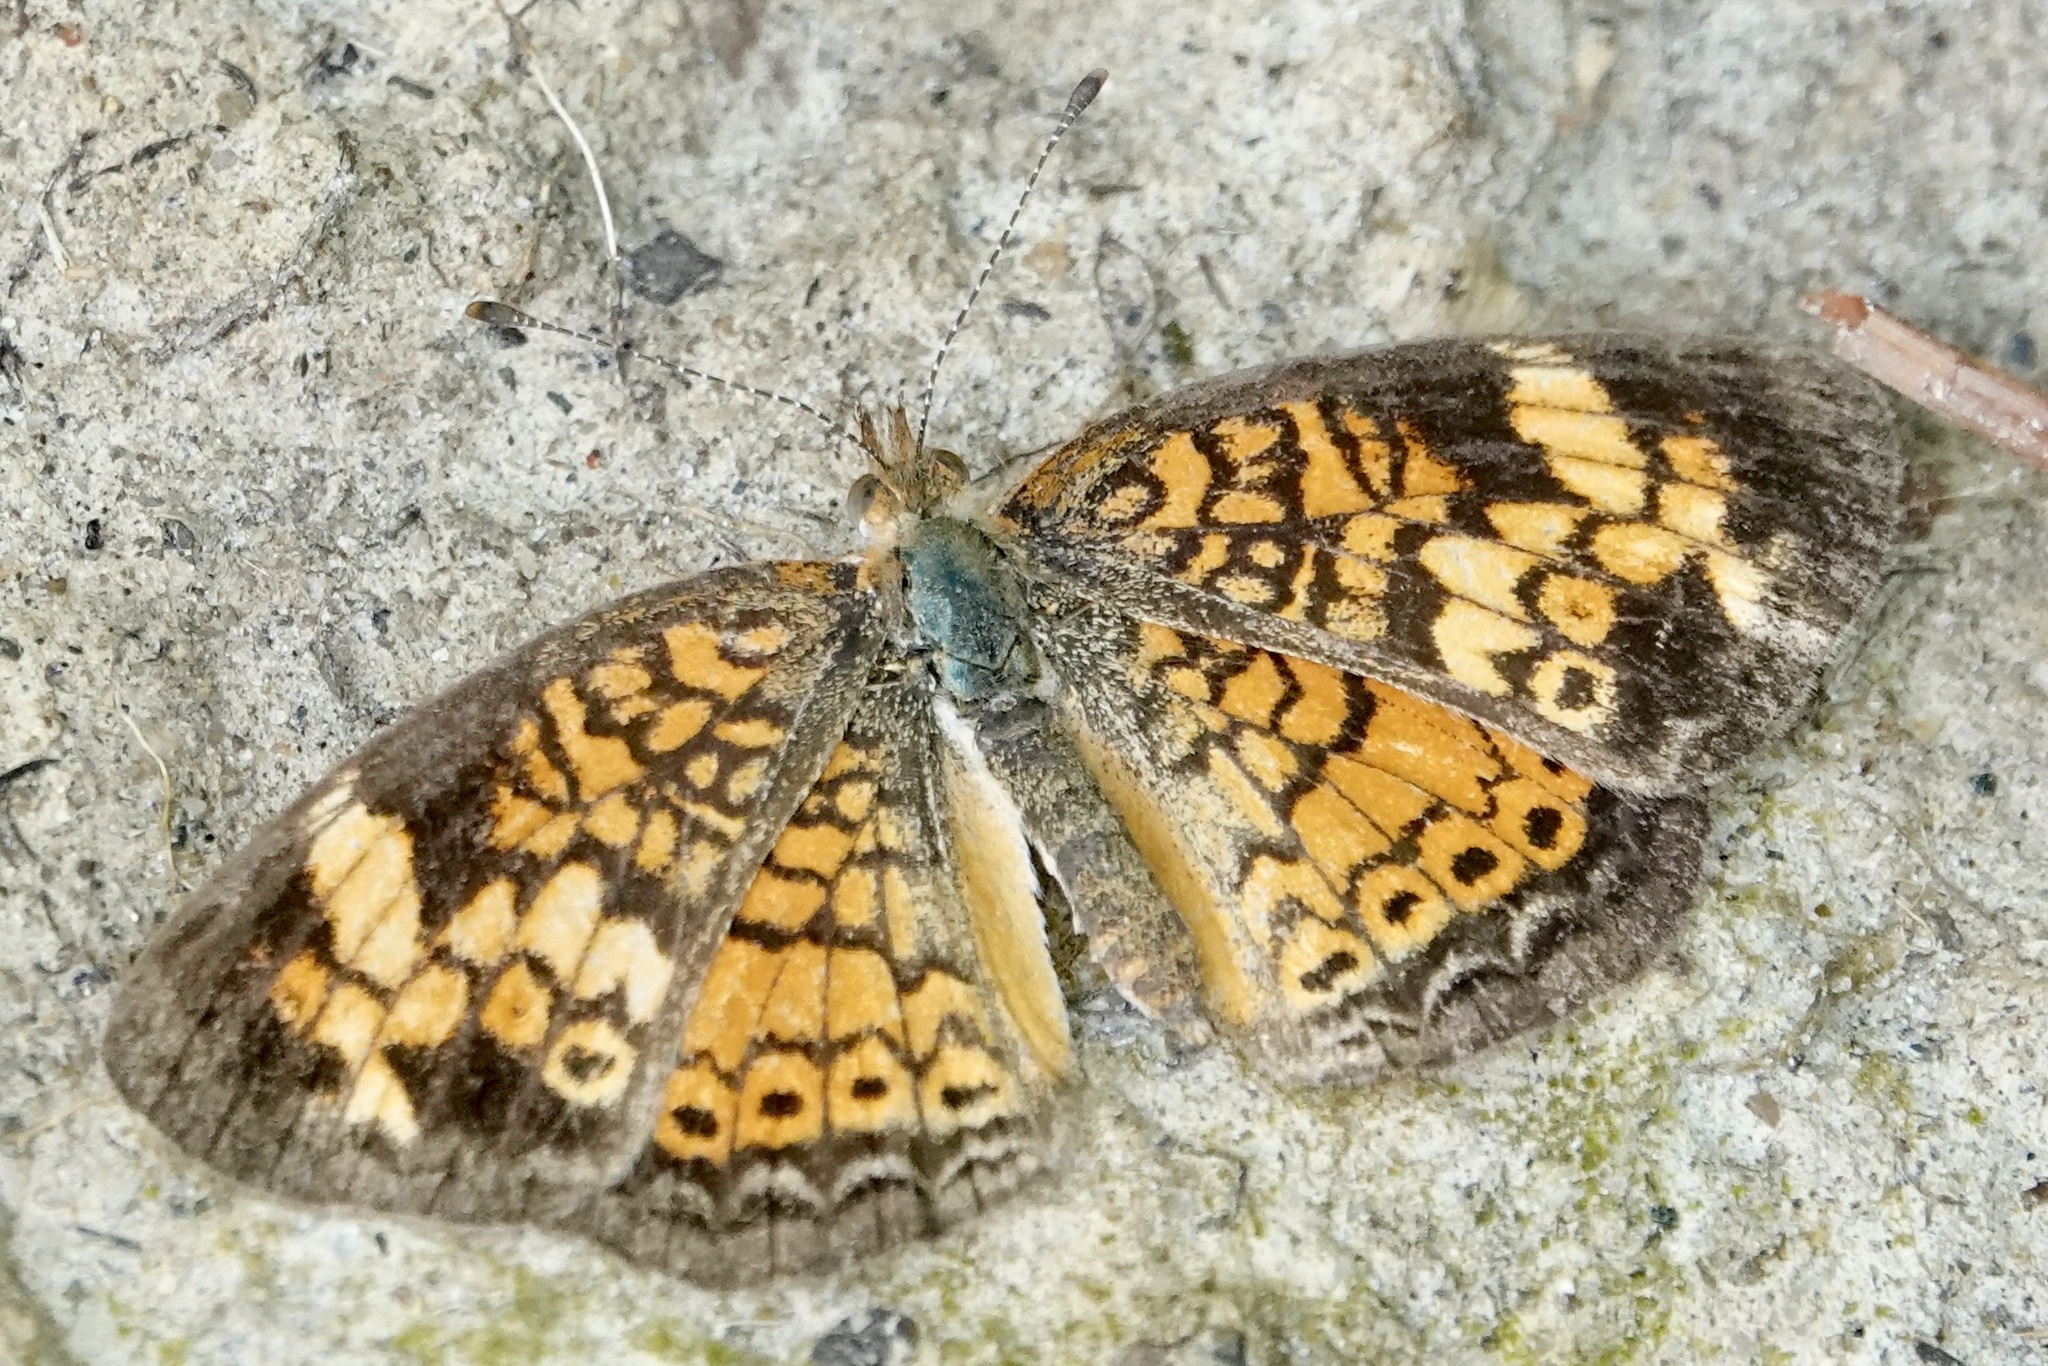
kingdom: Animalia
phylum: Arthropoda
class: Insecta
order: Lepidoptera
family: Nymphalidae
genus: Phyciodes
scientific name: Phyciodes tharos
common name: Pearl crescent
